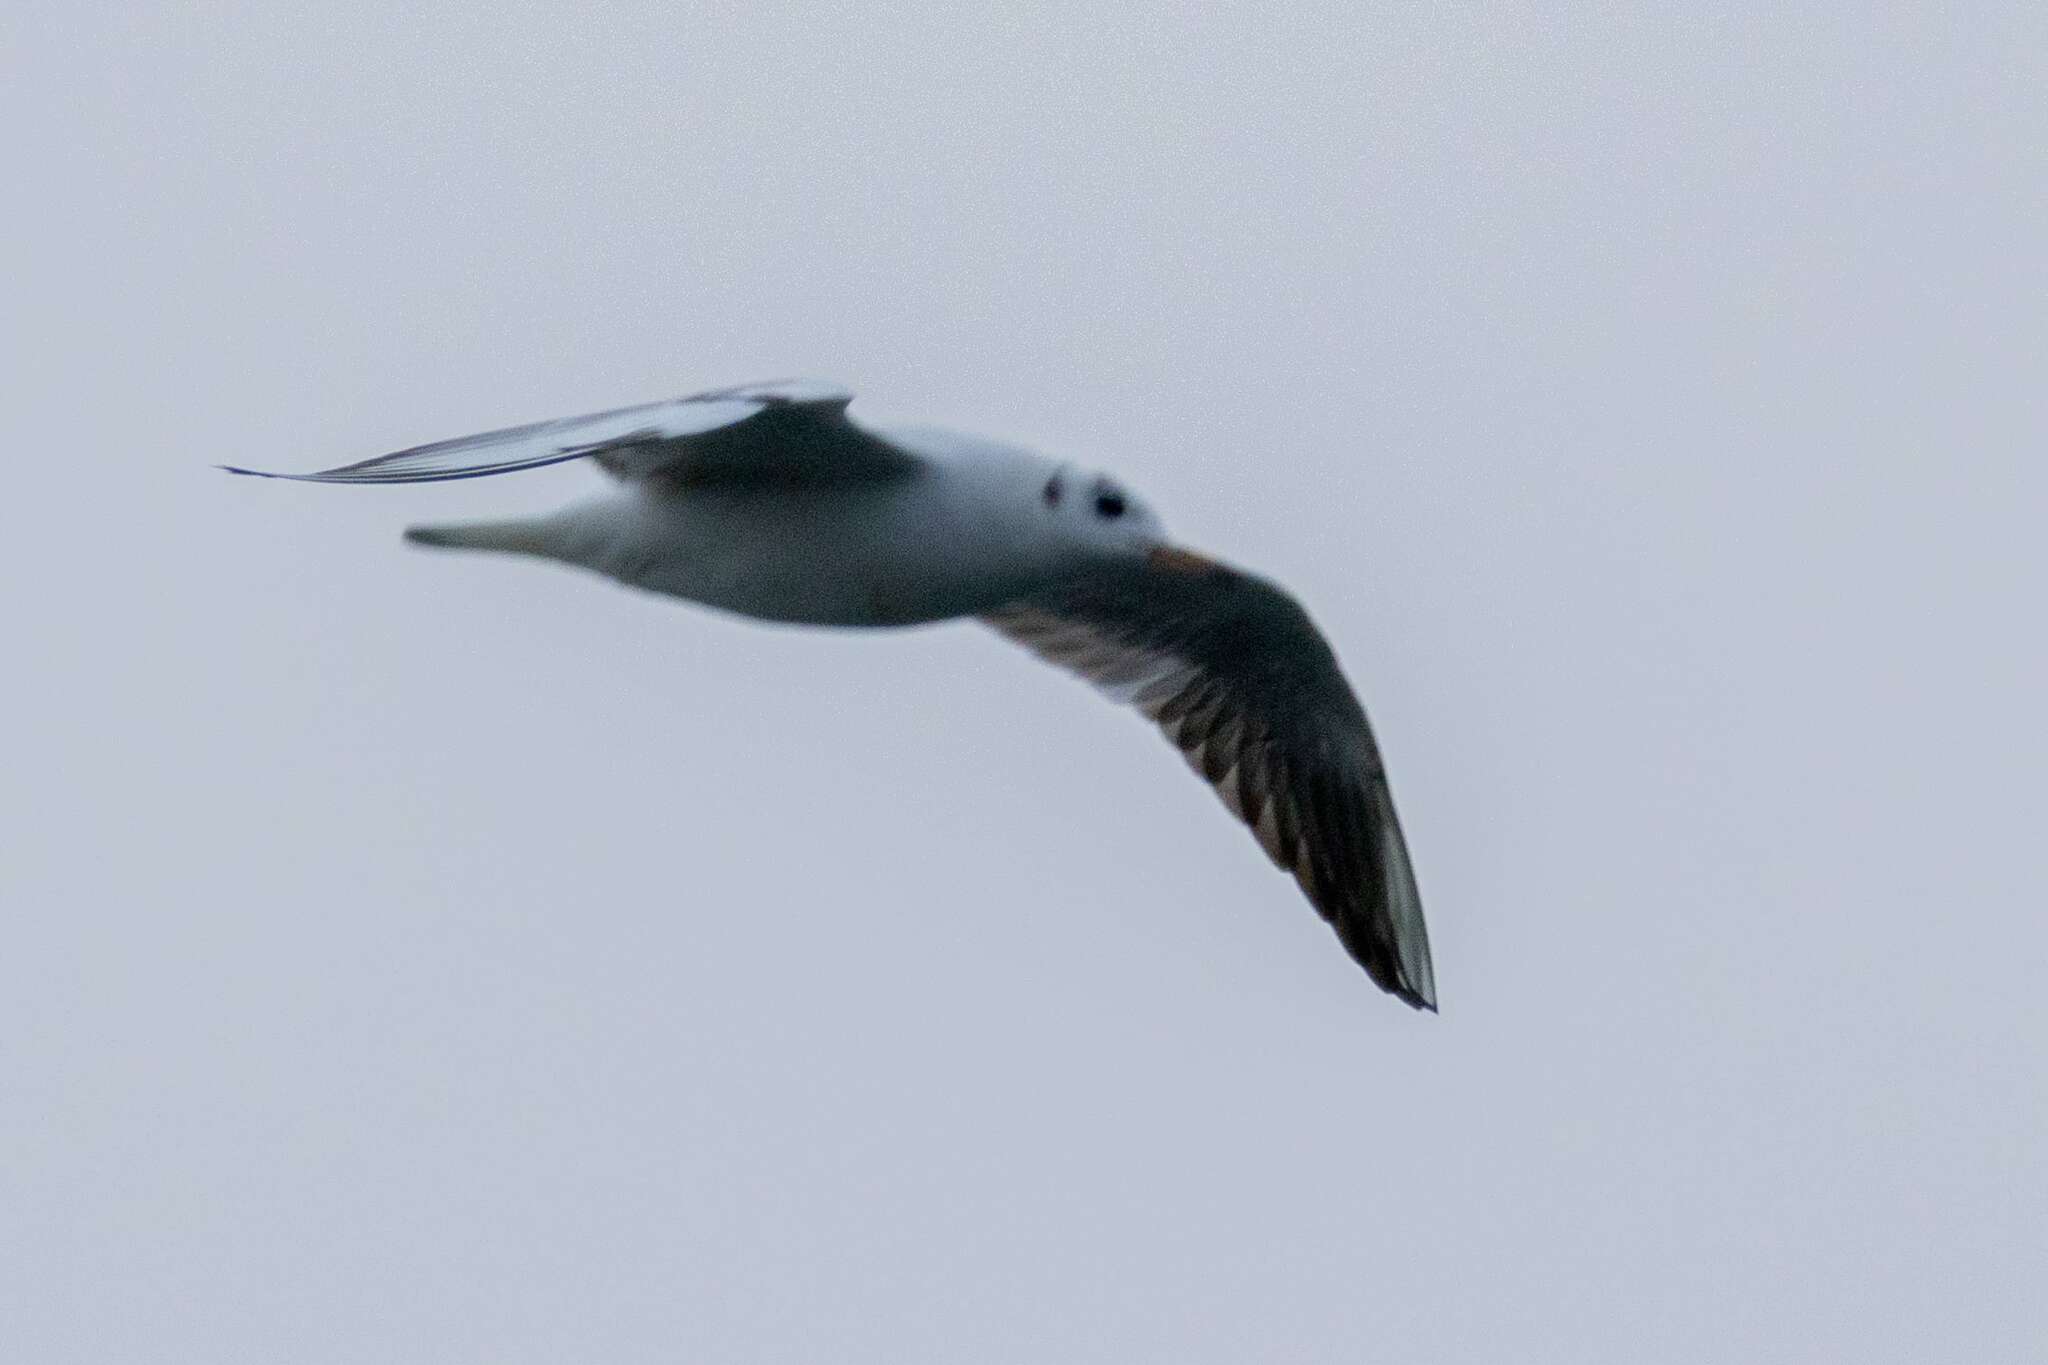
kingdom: Animalia
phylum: Chordata
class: Aves
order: Charadriiformes
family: Laridae
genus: Chroicocephalus
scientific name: Chroicocephalus ridibundus
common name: Black-headed gull
